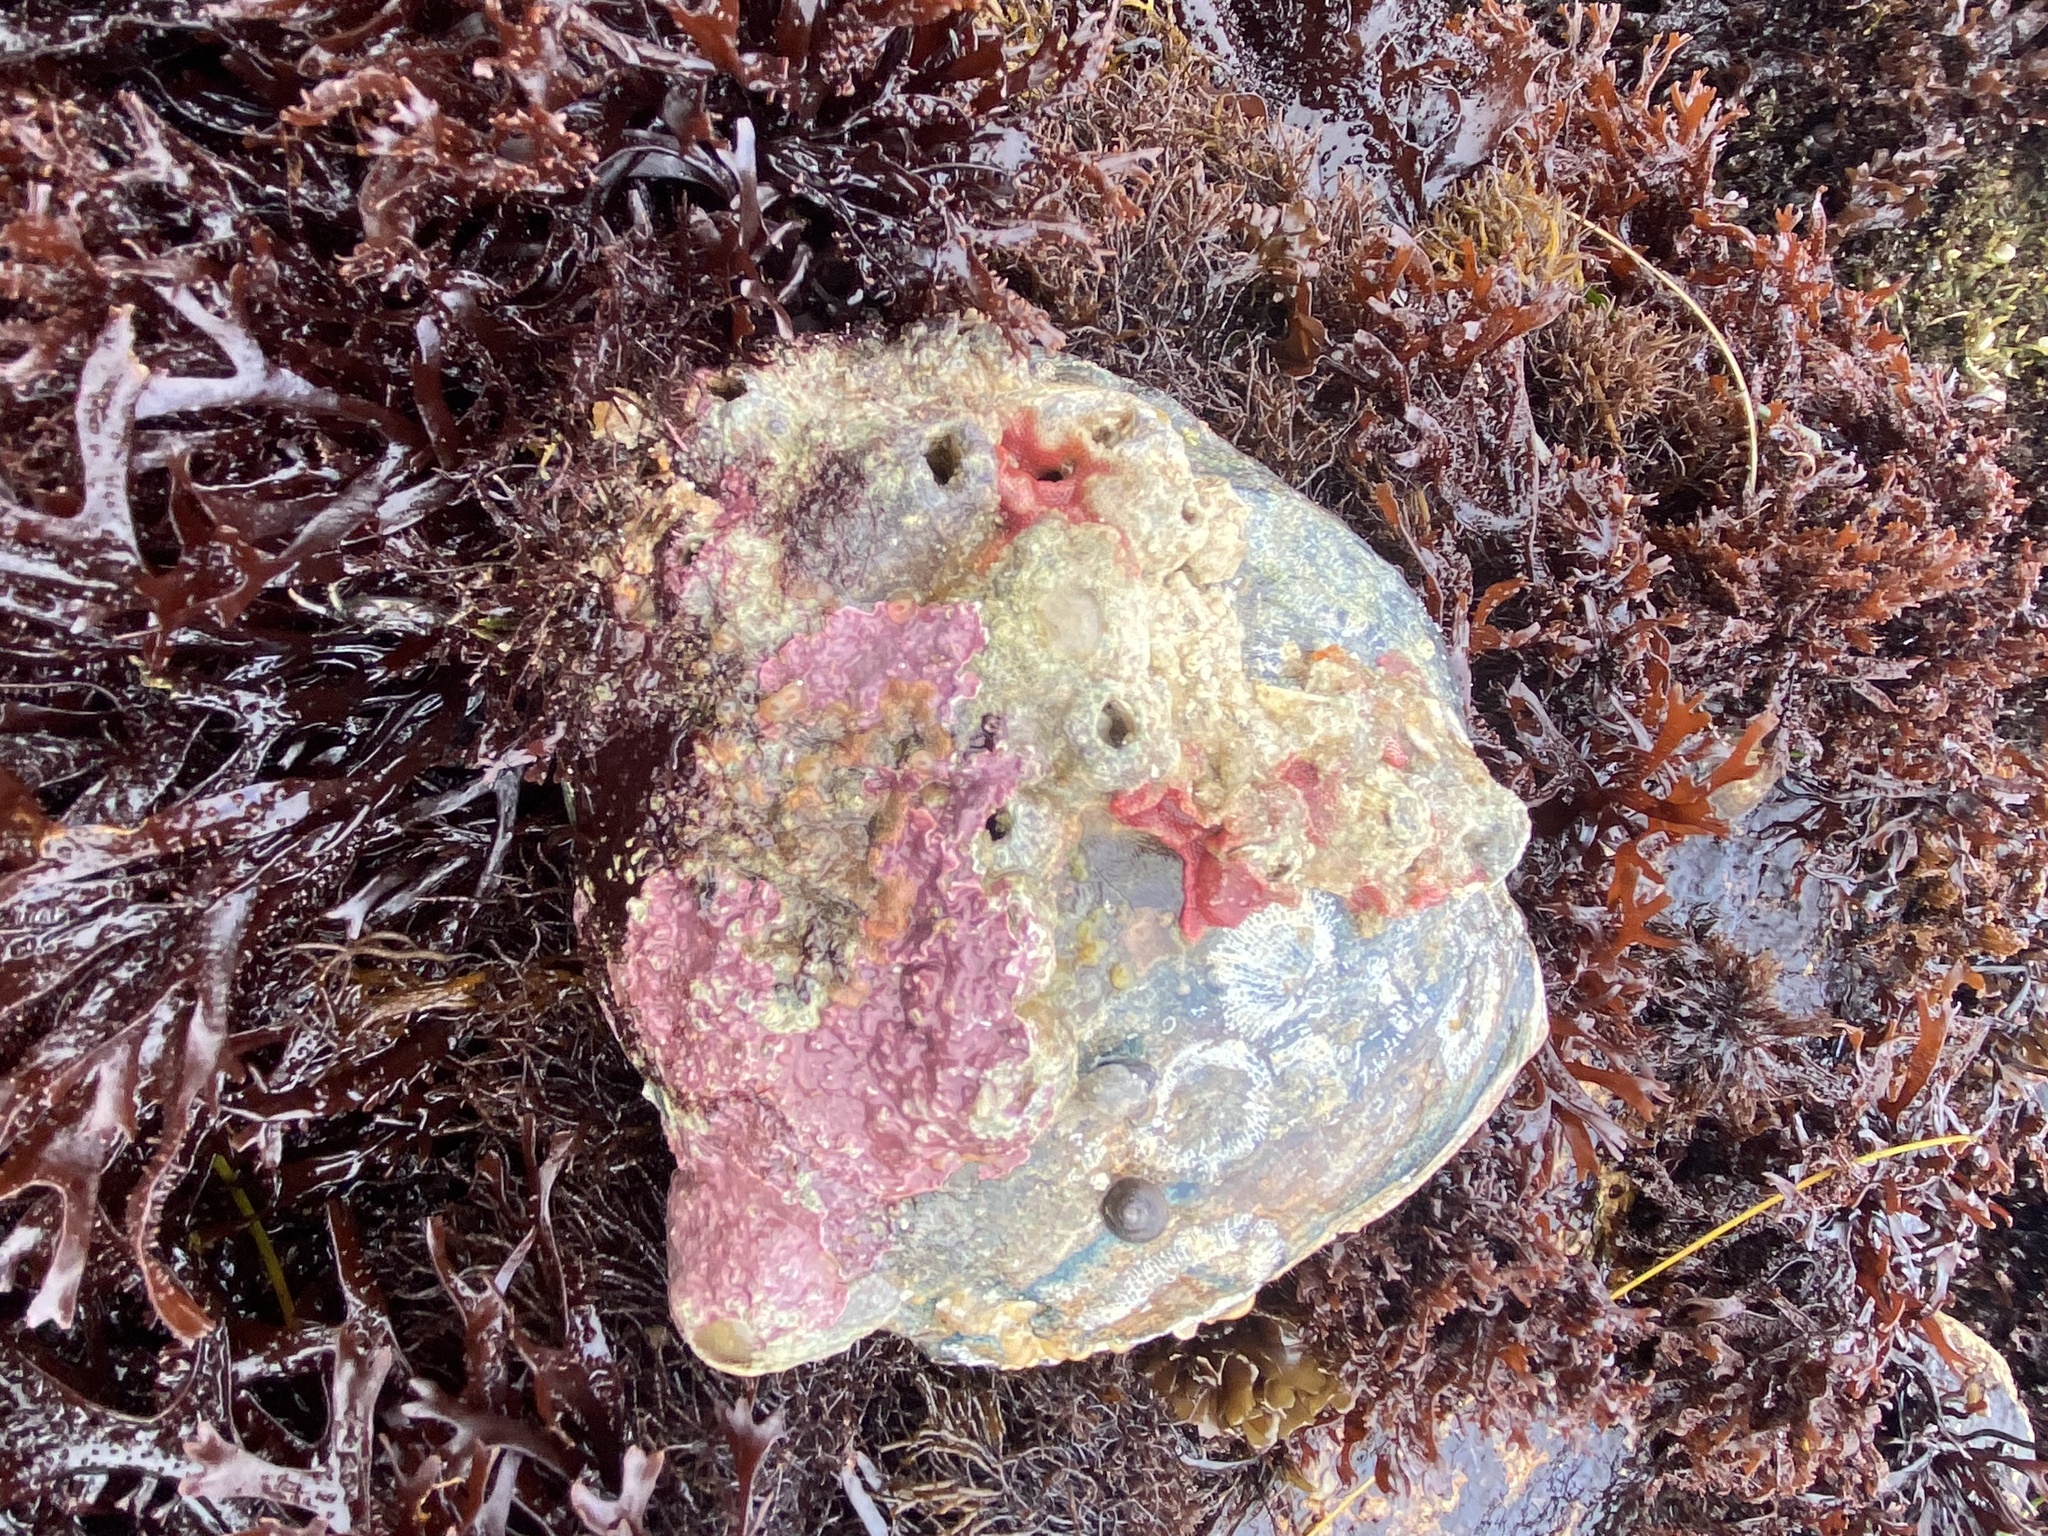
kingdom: Animalia
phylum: Mollusca
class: Gastropoda
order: Lepetellida
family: Haliotidae
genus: Haliotis
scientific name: Haliotis cracherodii
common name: Black abalone
